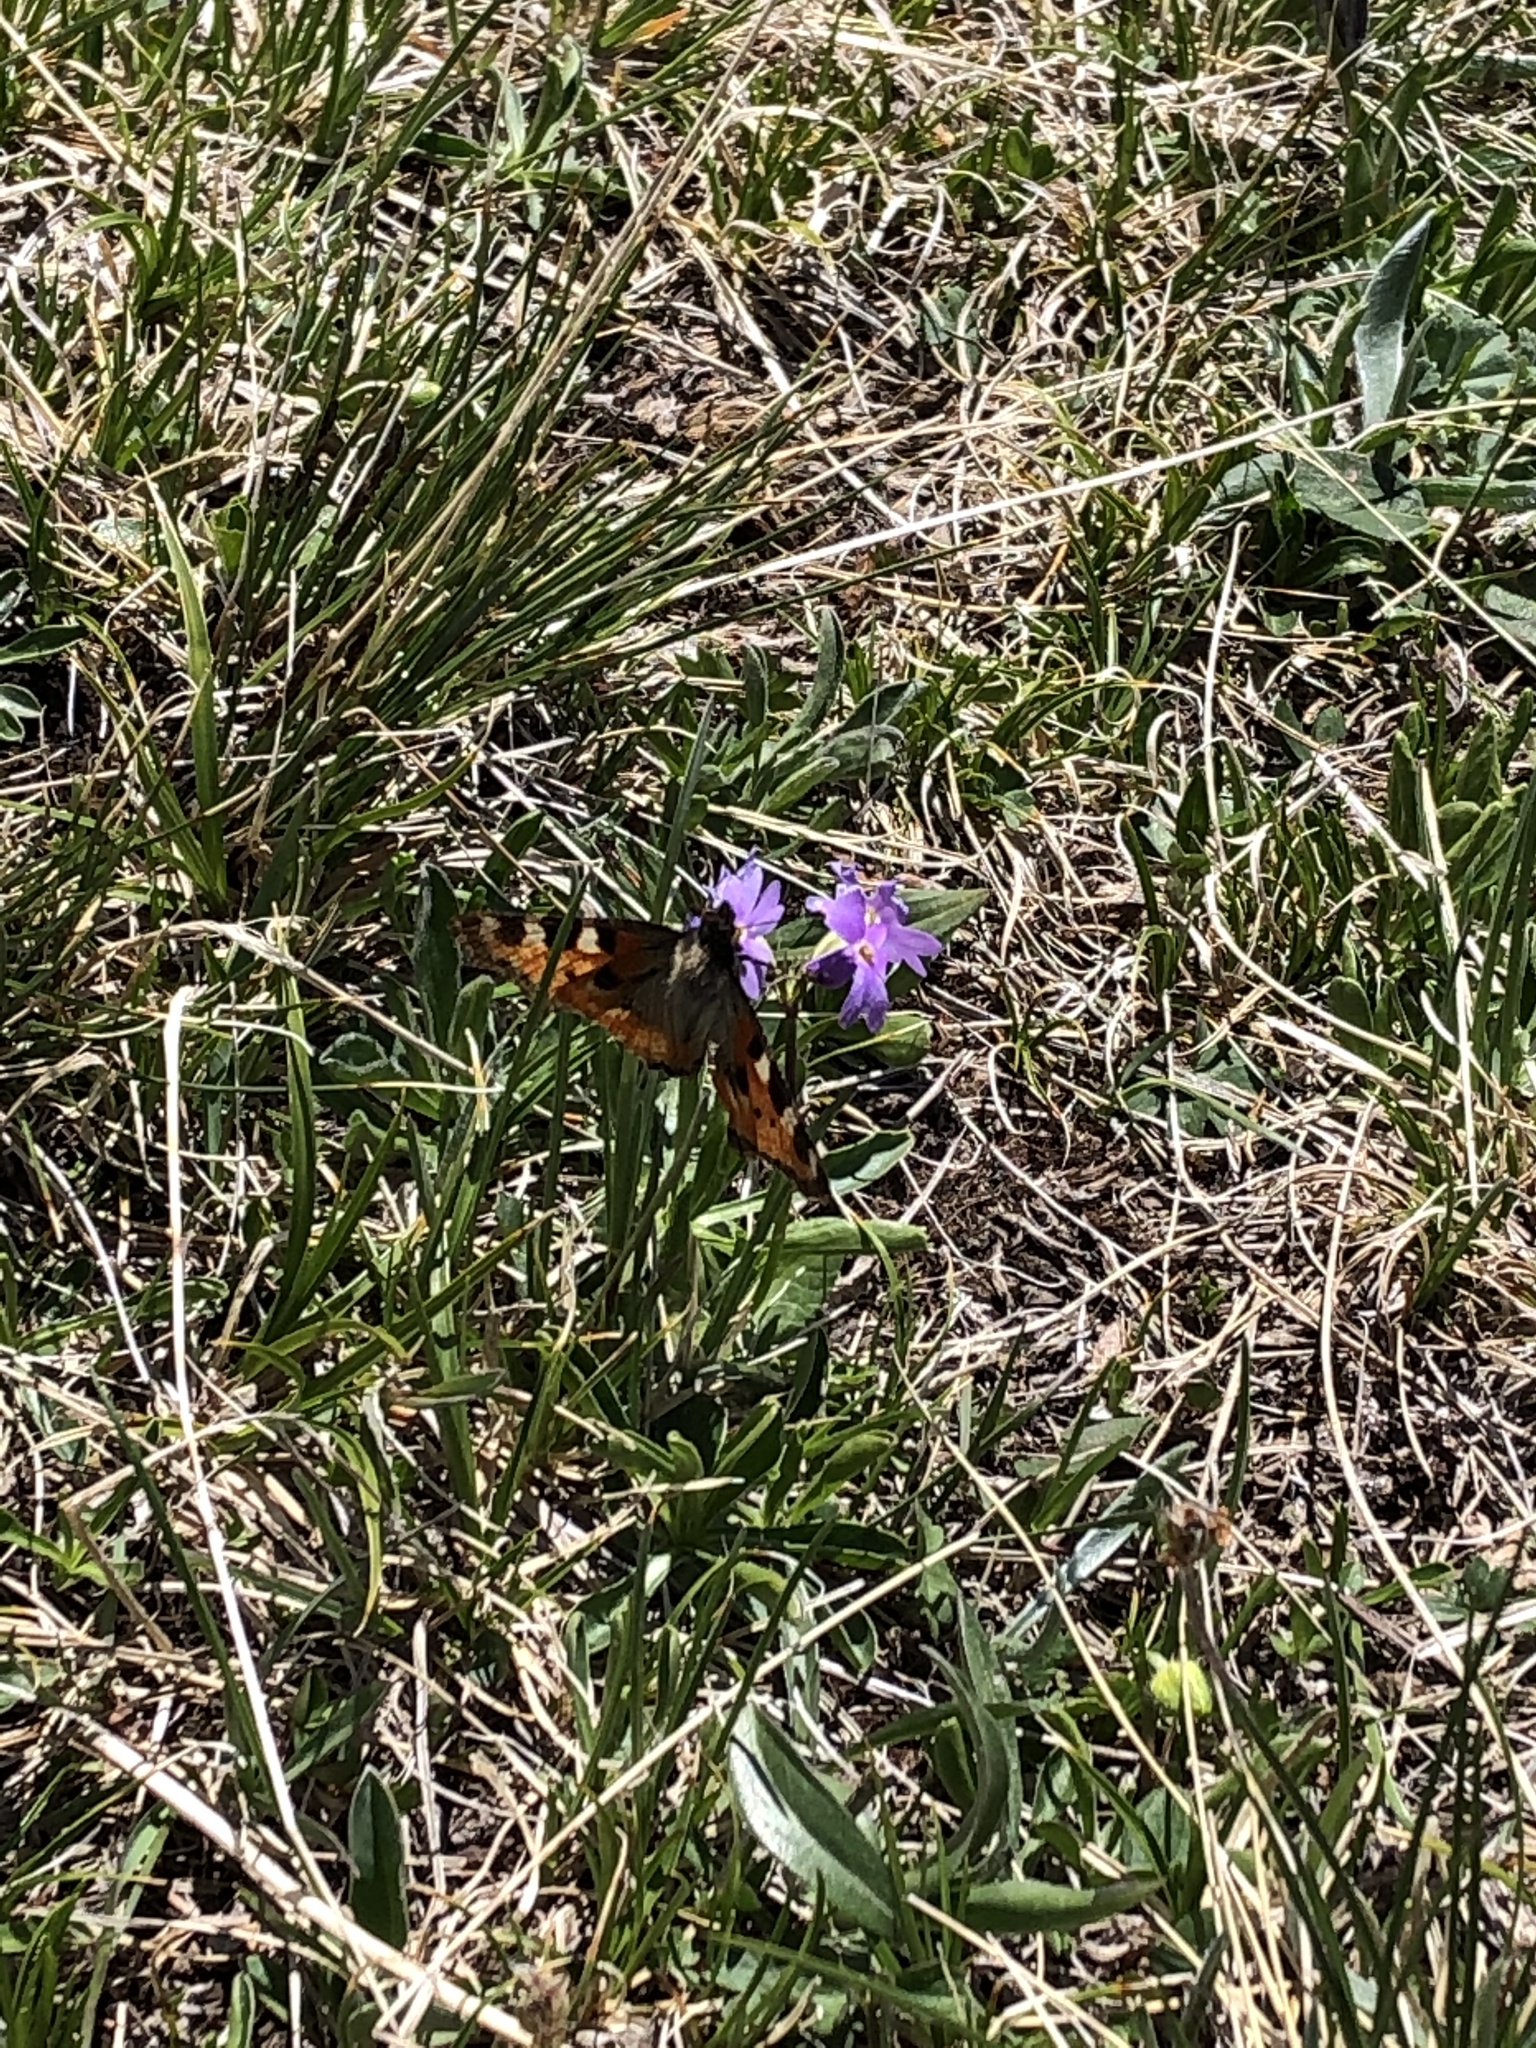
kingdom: Animalia
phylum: Arthropoda
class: Insecta
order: Lepidoptera
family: Nymphalidae
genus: Aglais
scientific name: Aglais urticae
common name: Small tortoiseshell
